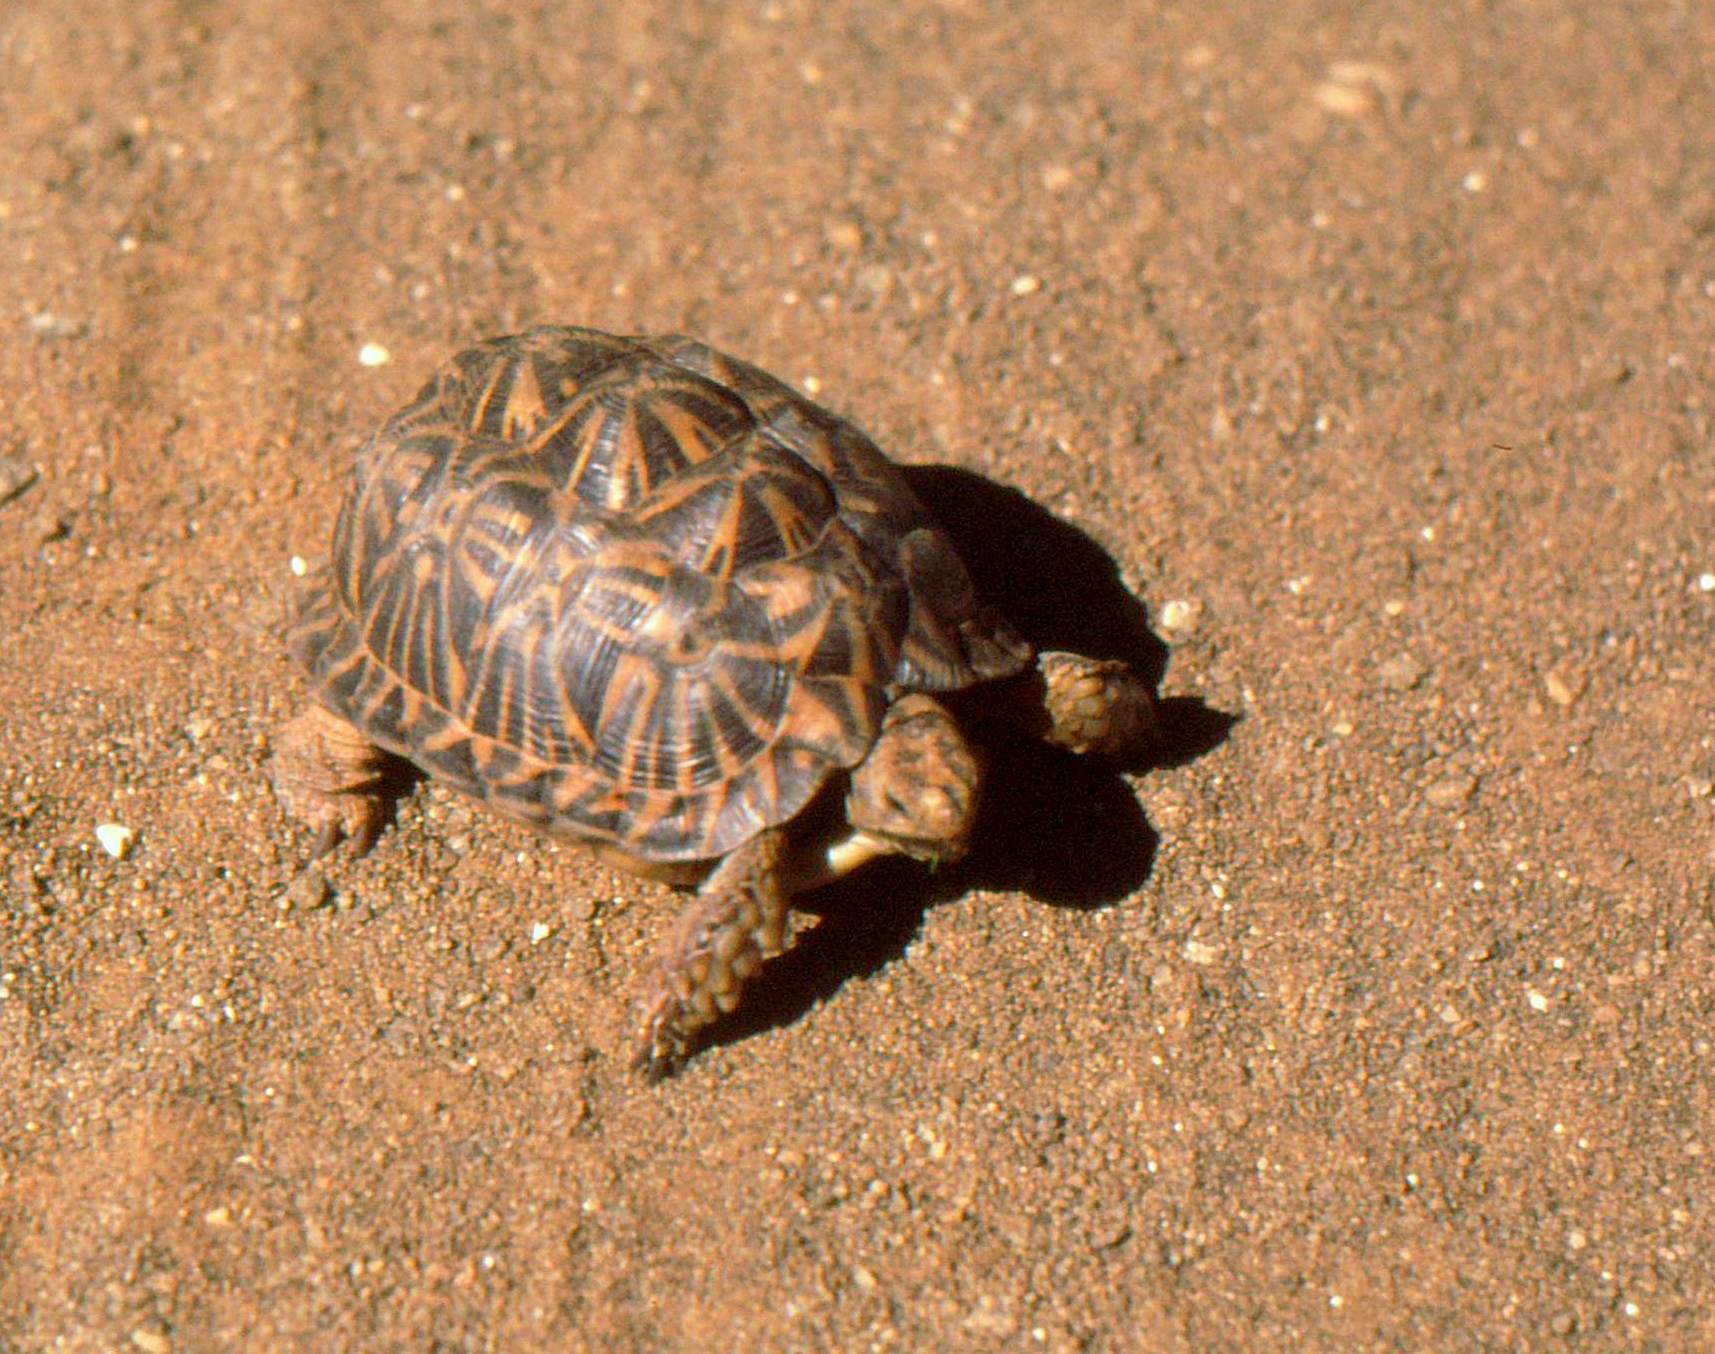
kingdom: Animalia
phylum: Chordata
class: Testudines
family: Testudinidae
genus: Psammobates
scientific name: Psammobates tentorius
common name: Tent tortoise
